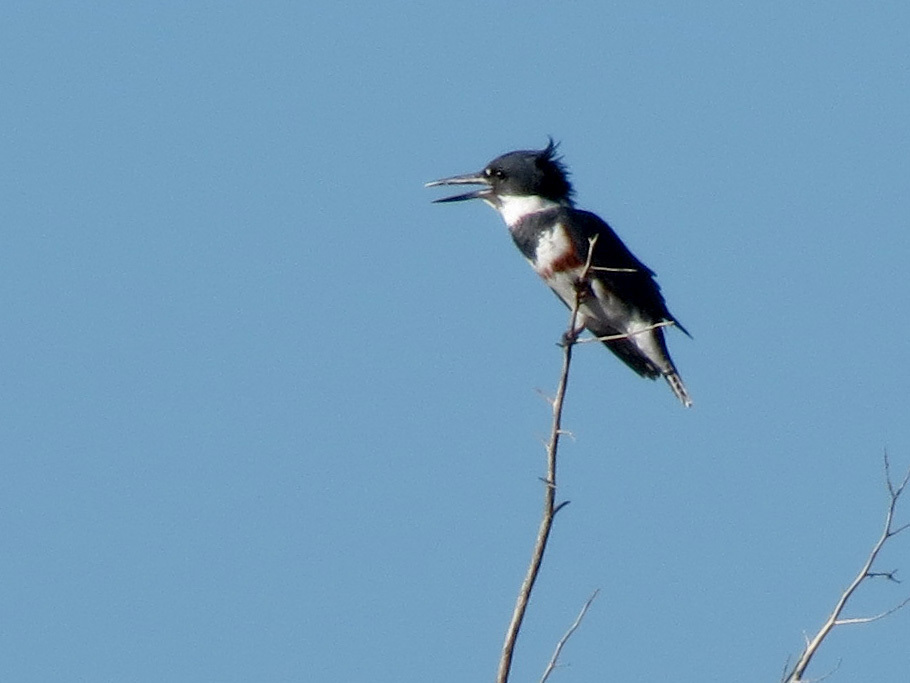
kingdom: Animalia
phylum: Chordata
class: Aves
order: Coraciiformes
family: Alcedinidae
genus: Megaceryle
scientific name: Megaceryle alcyon
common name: Belted kingfisher
